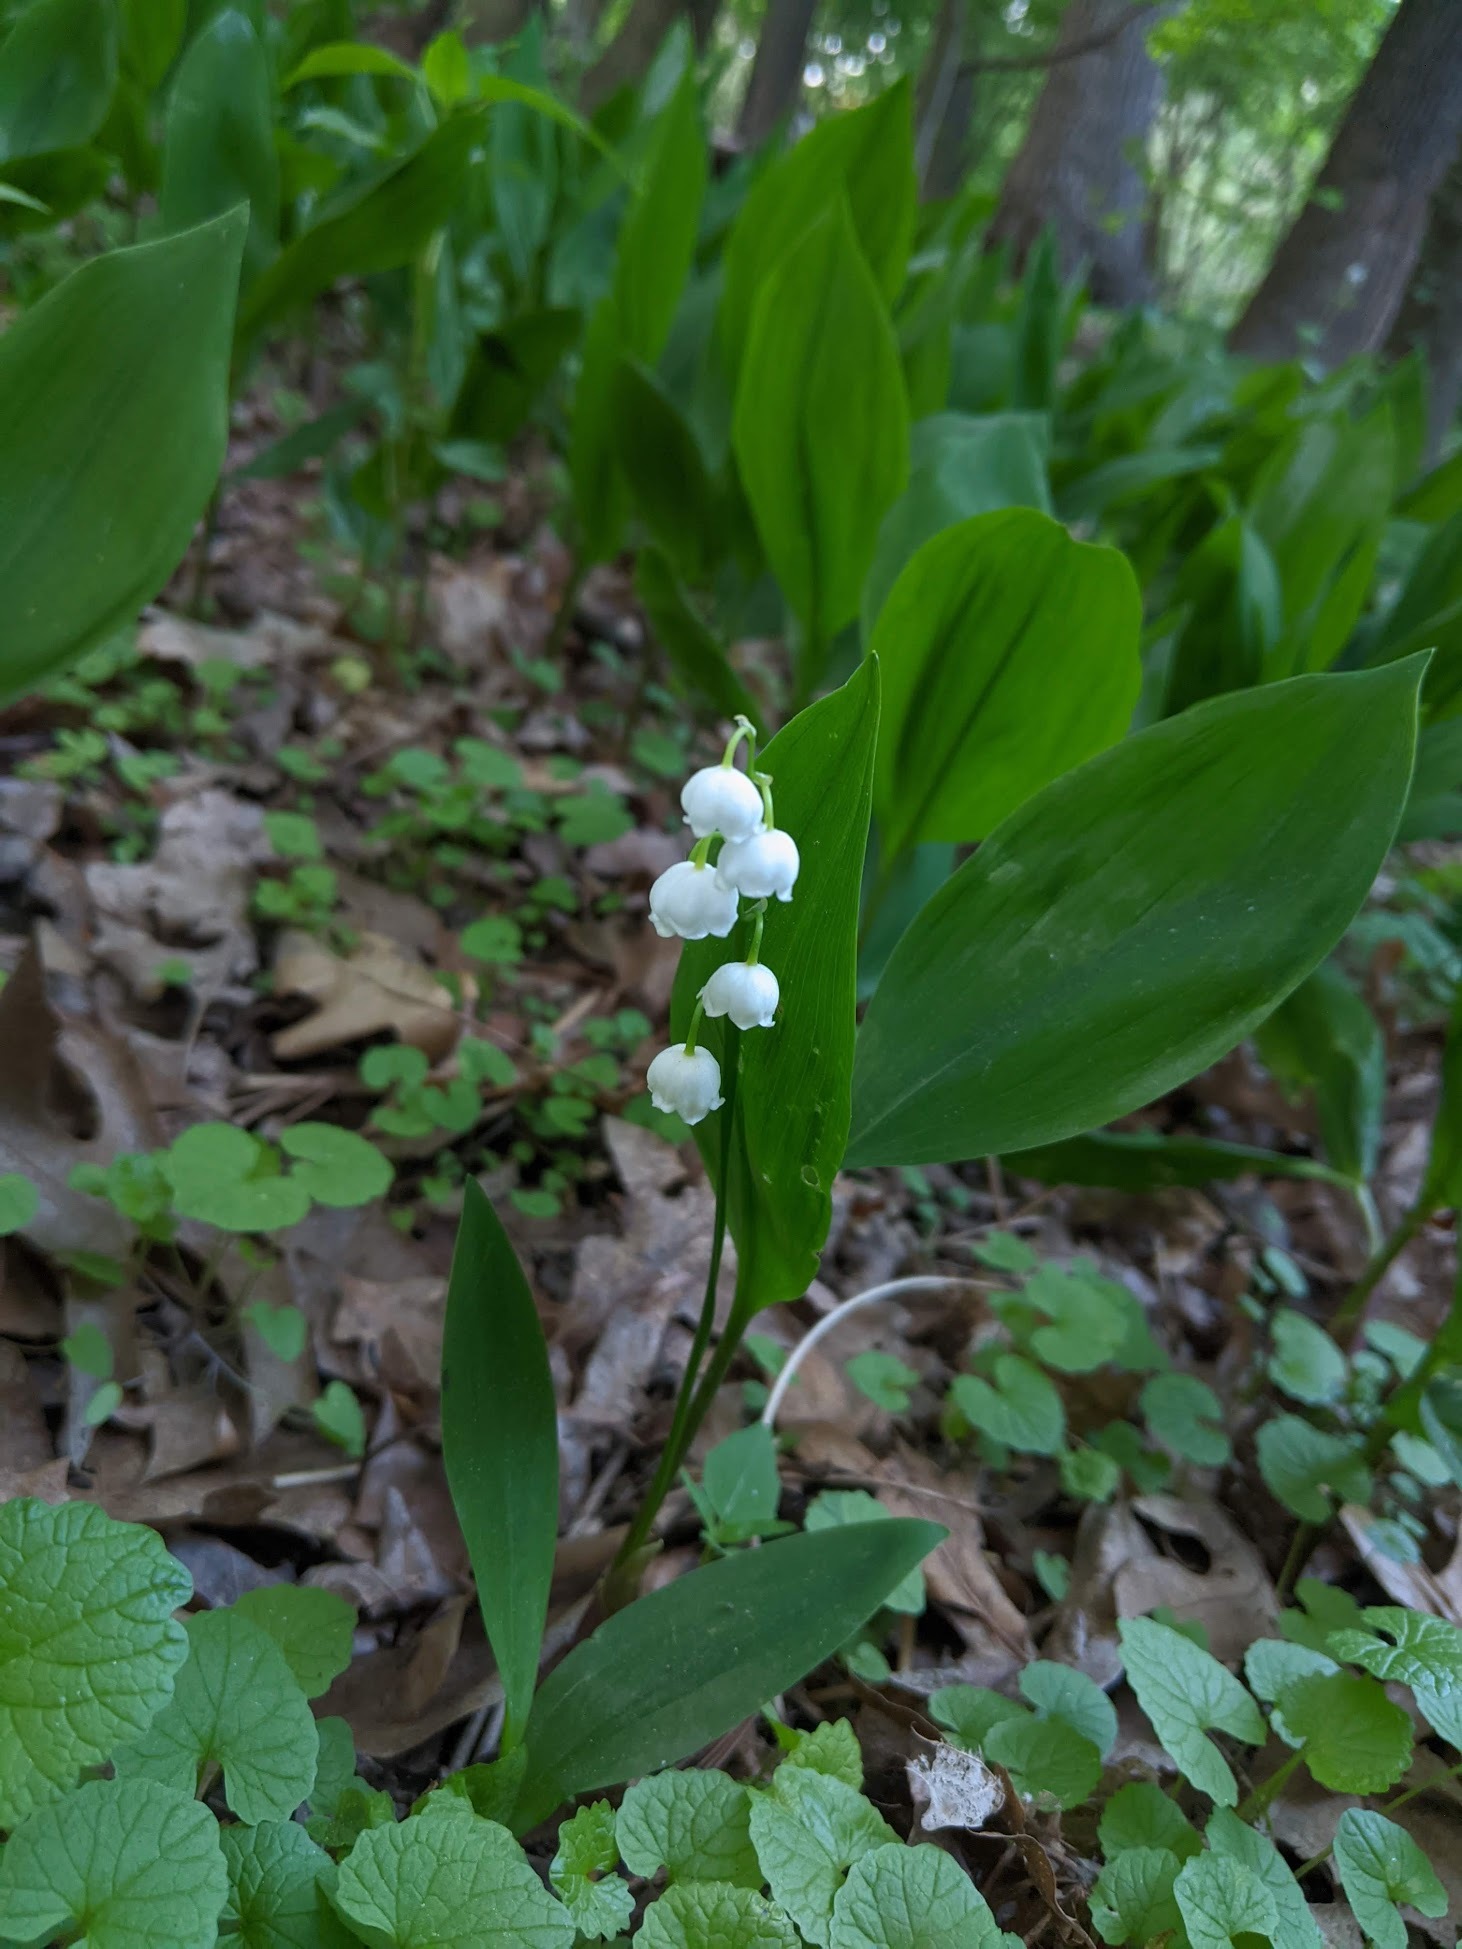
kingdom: Plantae
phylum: Tracheophyta
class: Liliopsida
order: Asparagales
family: Asparagaceae
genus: Convallaria
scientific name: Convallaria majalis
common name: Lily-of-the-valley
